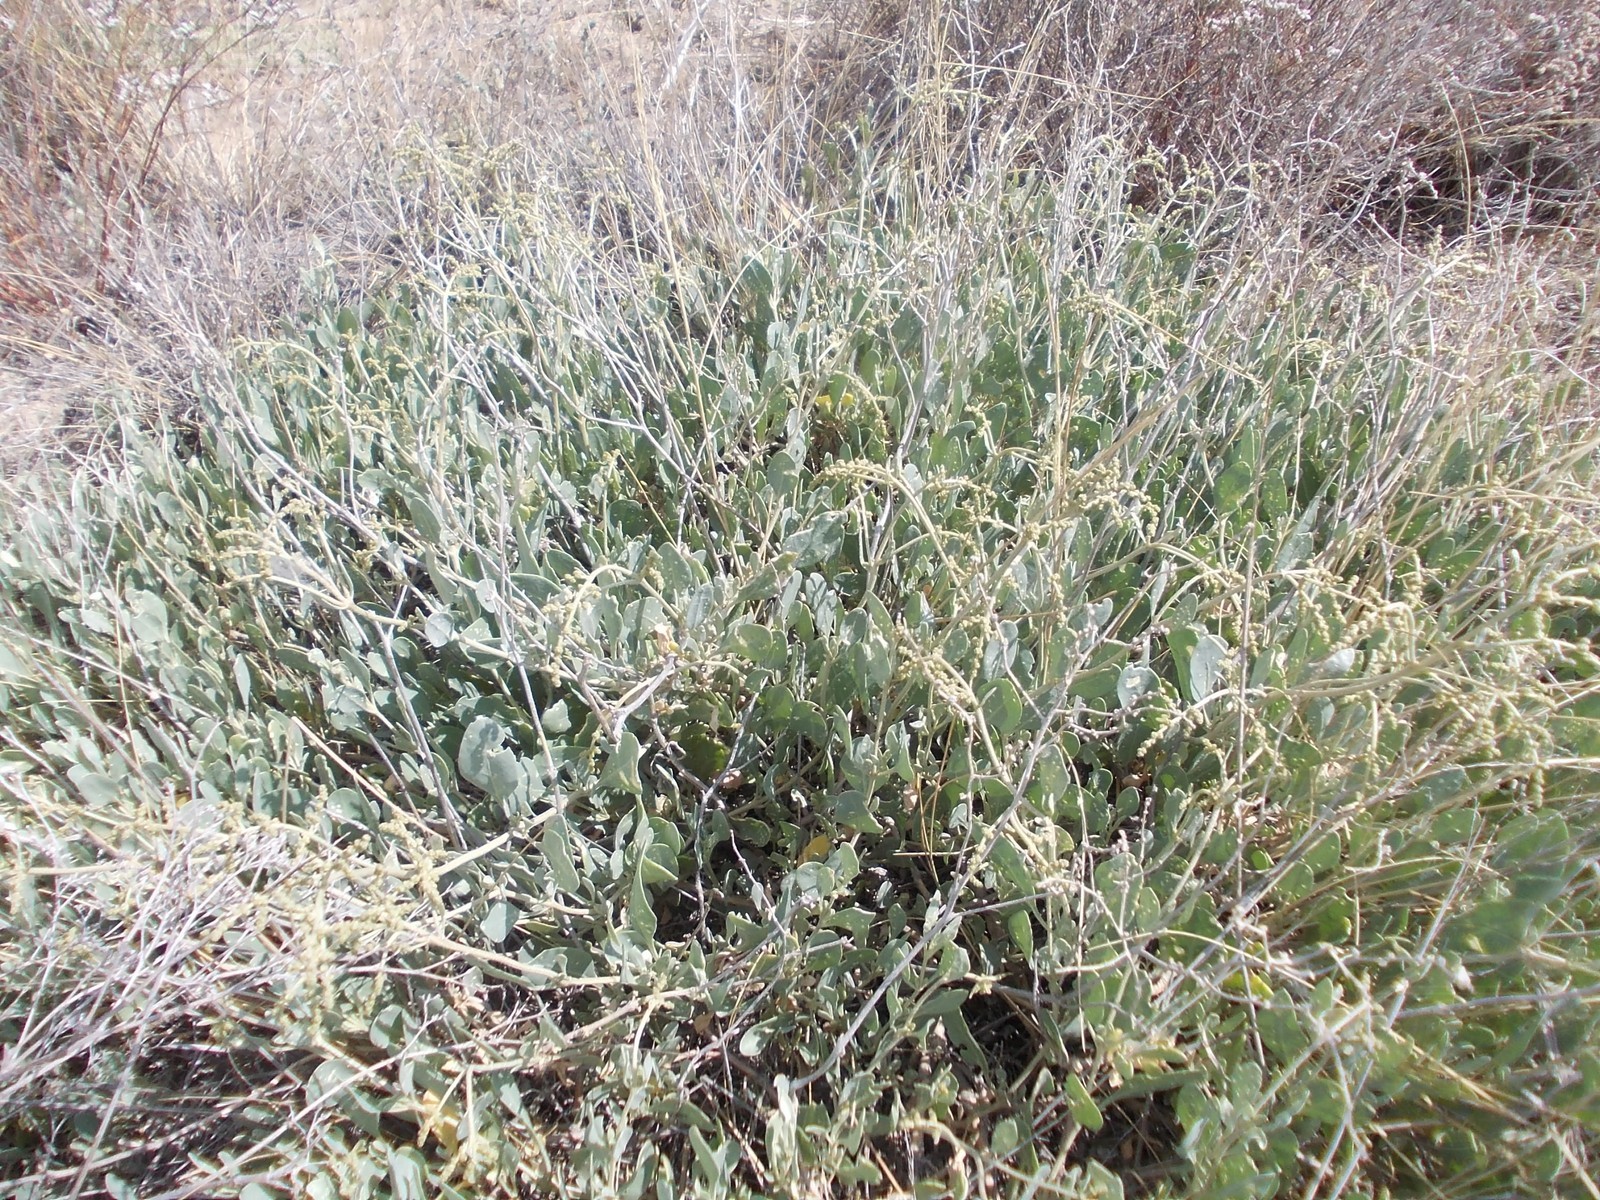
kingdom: Plantae
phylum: Tracheophyta
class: Magnoliopsida
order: Caryophyllales
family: Amaranthaceae
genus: Halimione
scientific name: Halimione verrucifera
